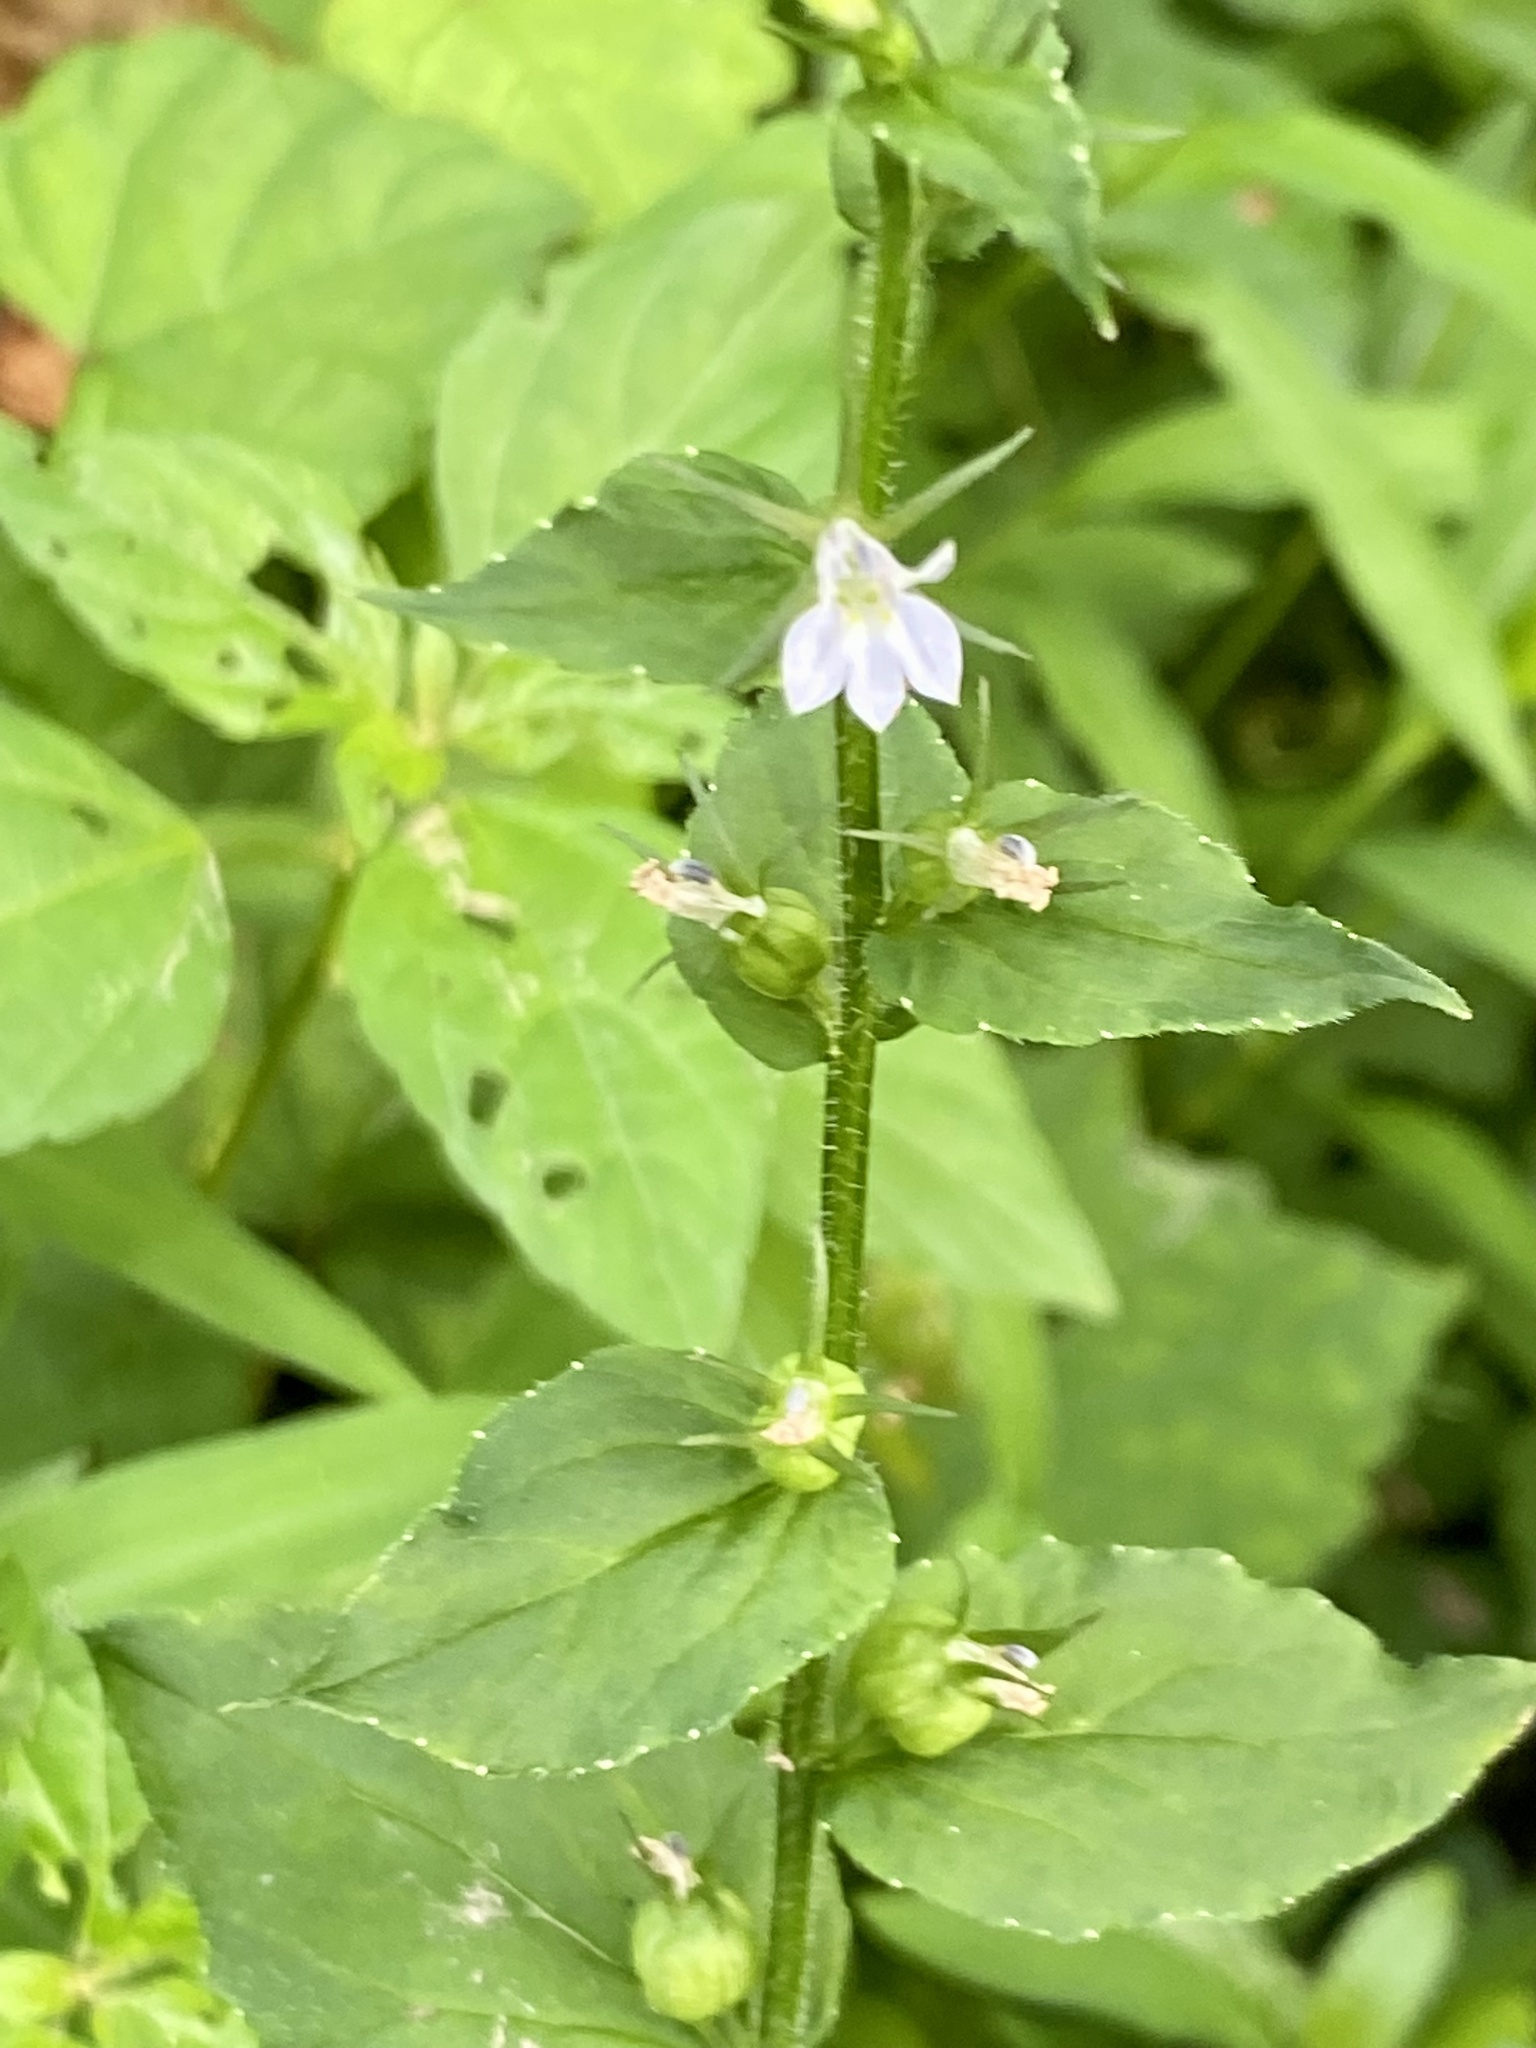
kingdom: Plantae
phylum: Tracheophyta
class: Magnoliopsida
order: Asterales
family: Campanulaceae
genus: Lobelia
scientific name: Lobelia inflata
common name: Indian tobacco
